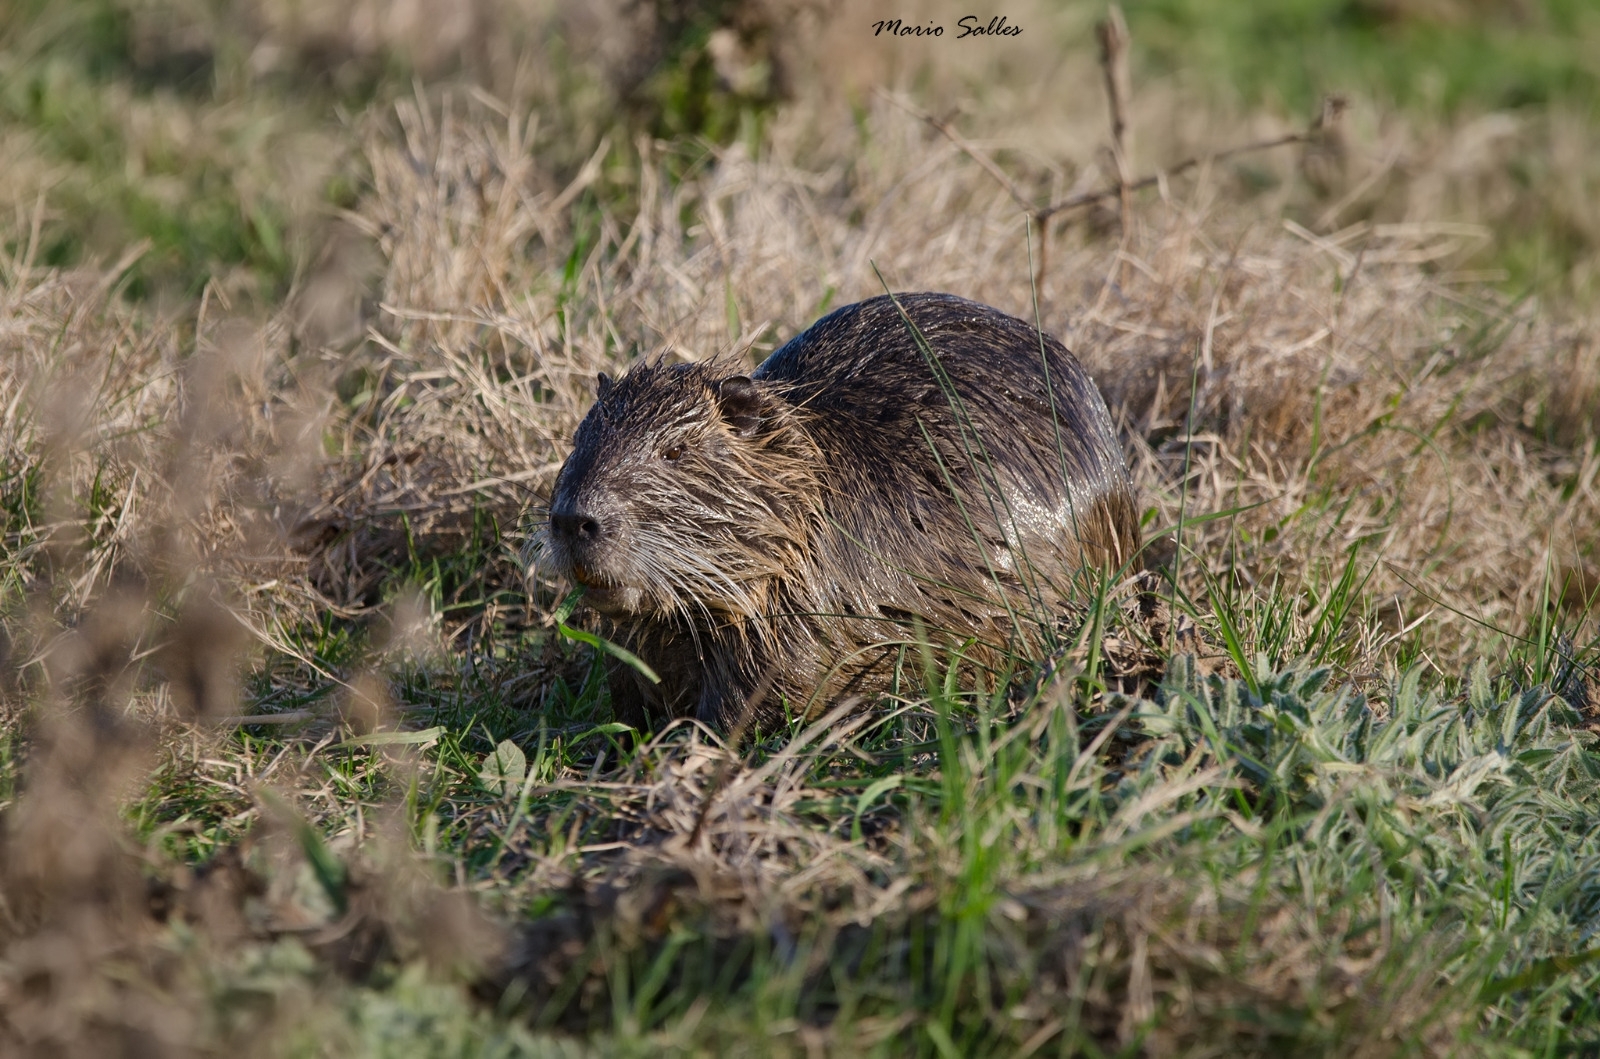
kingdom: Animalia
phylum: Chordata
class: Mammalia
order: Rodentia
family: Myocastoridae
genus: Myocastor
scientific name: Myocastor coypus
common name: Coypu
